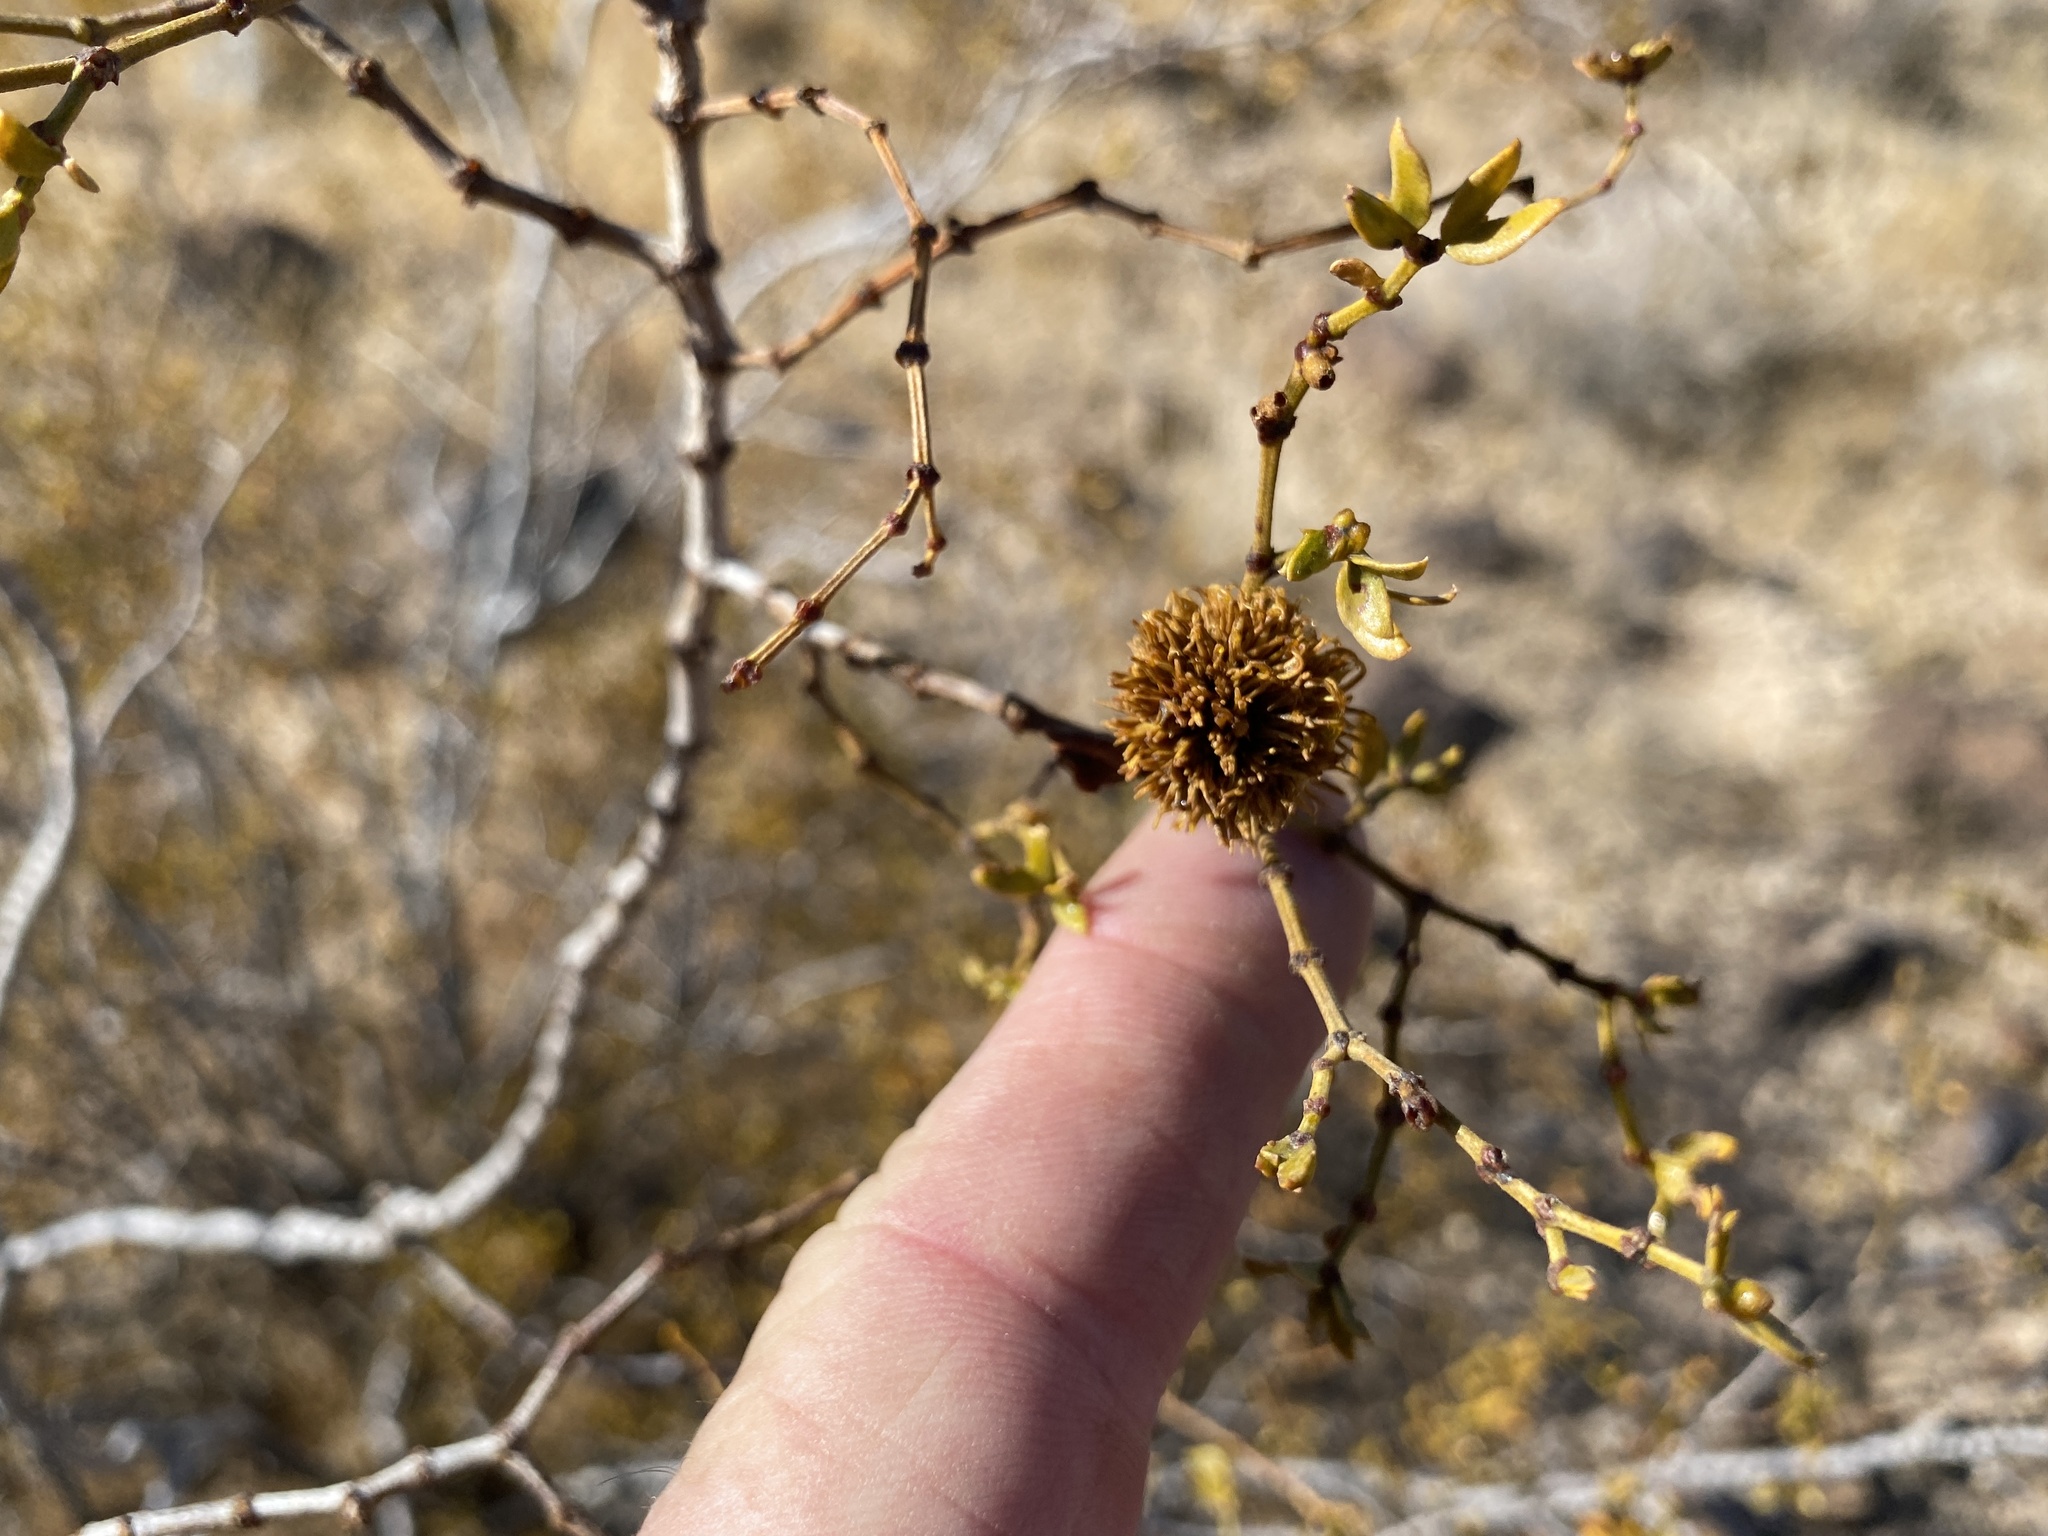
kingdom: Animalia
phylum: Arthropoda
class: Insecta
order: Diptera
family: Cecidomyiidae
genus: Asphondylia
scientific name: Asphondylia auripila
